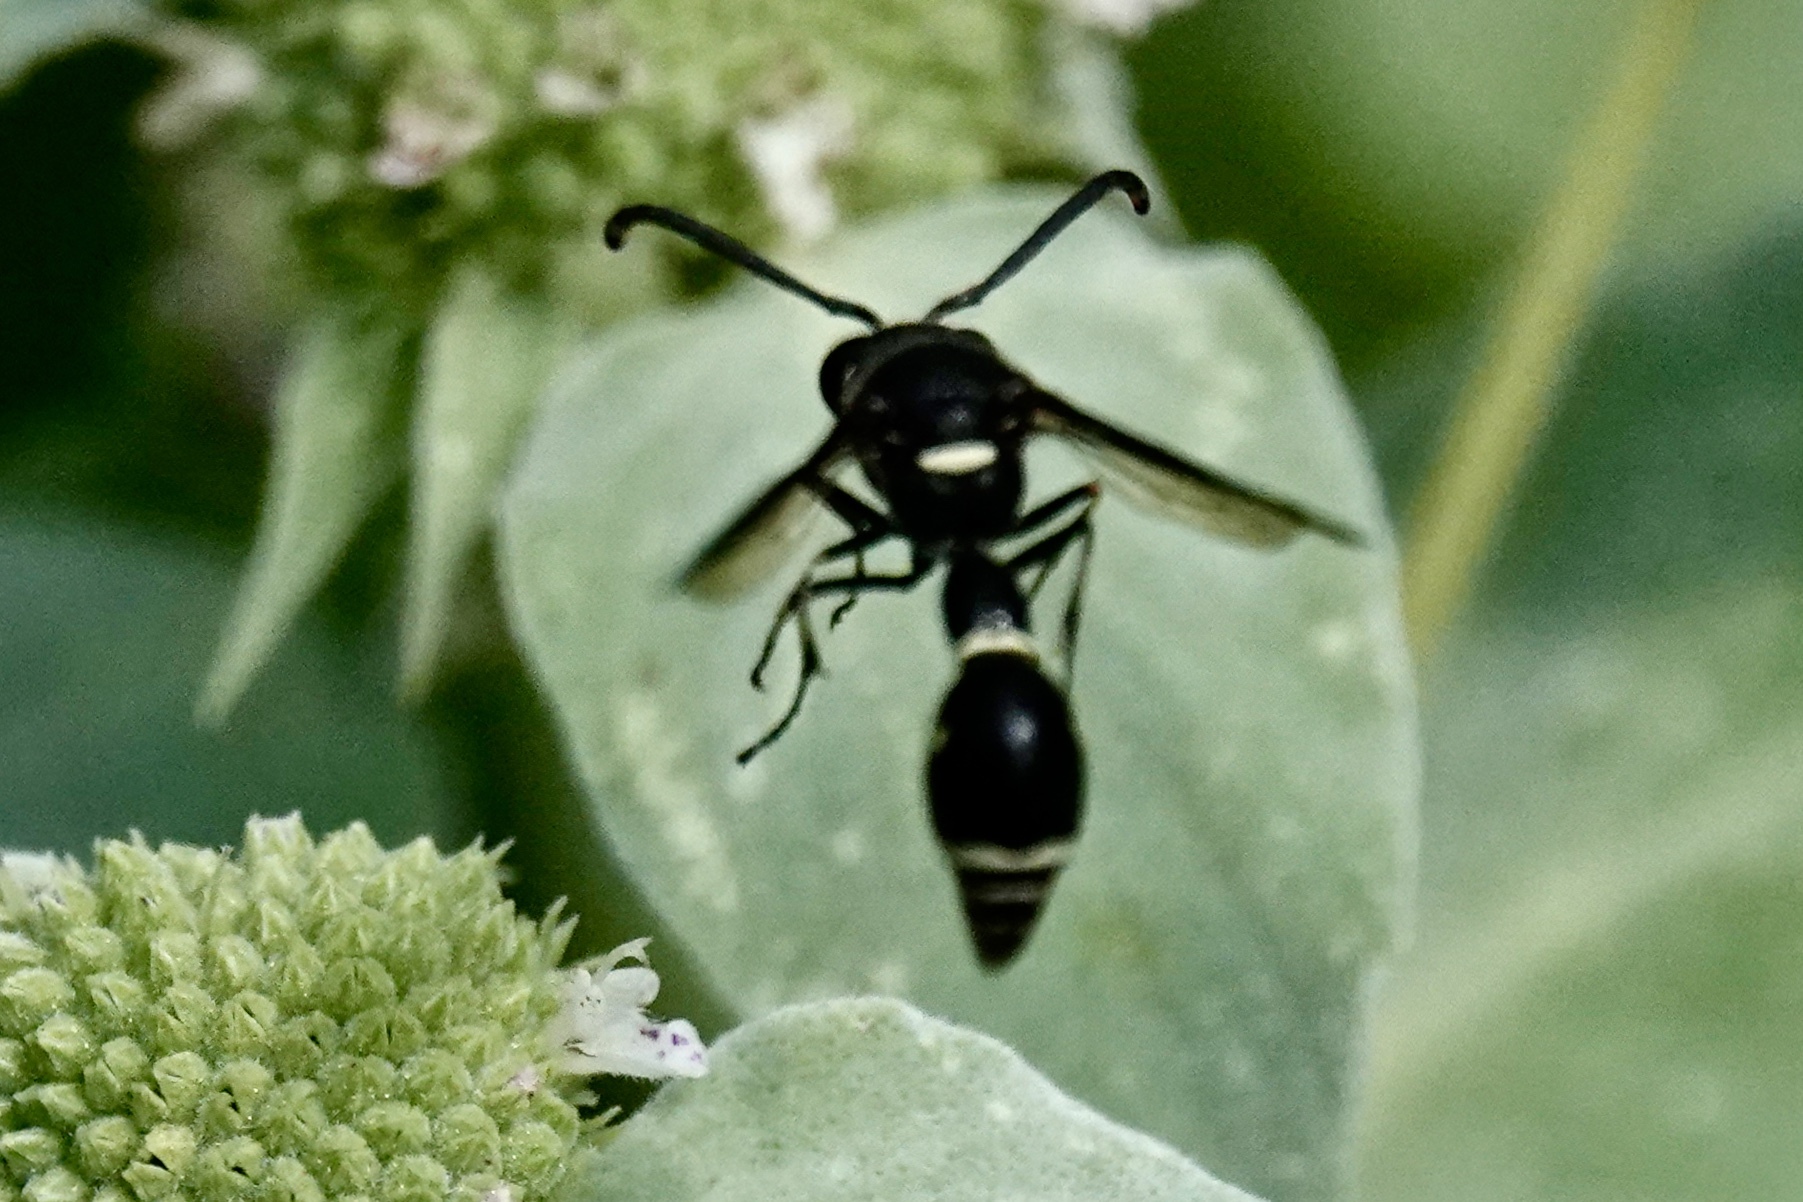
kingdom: Animalia
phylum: Arthropoda
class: Insecta
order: Hymenoptera
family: Vespidae
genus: Eumenes
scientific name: Eumenes fraternus
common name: Fraternal potter wasp
